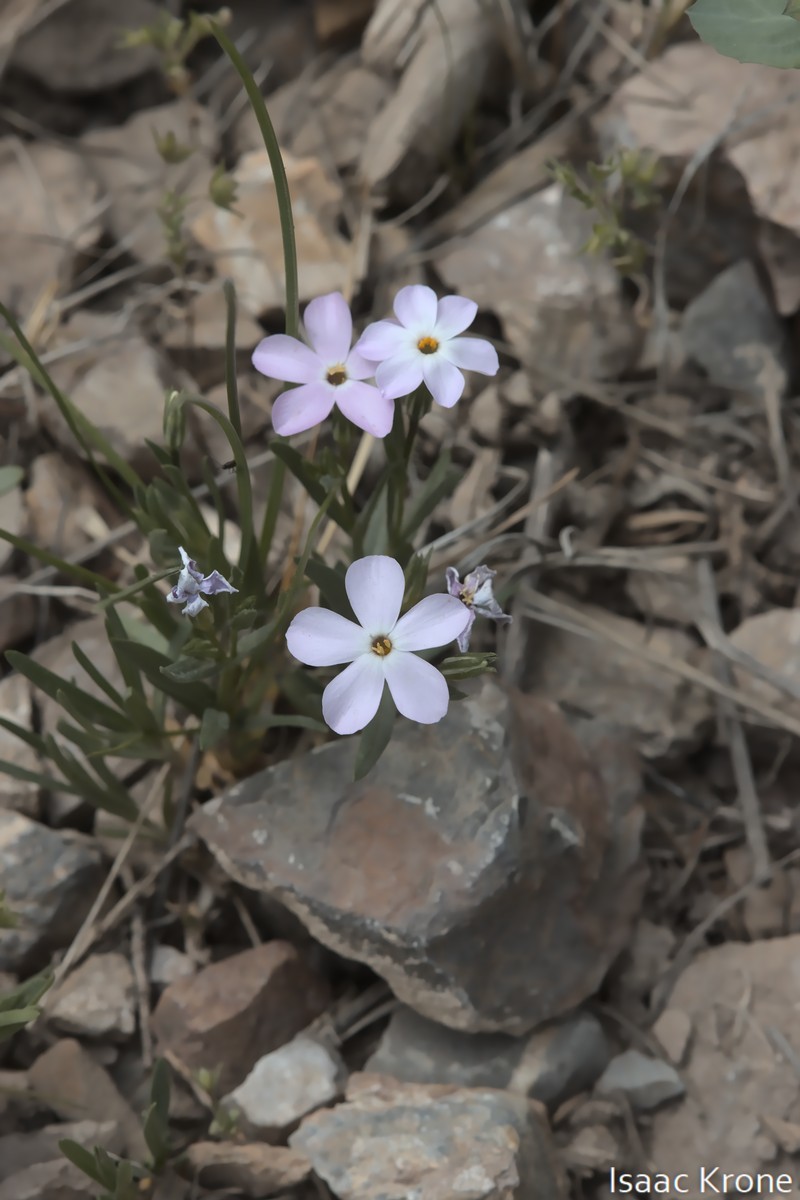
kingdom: Plantae
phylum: Tracheophyta
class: Magnoliopsida
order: Ericales
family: Polemoniaceae
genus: Phlox
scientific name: Phlox longifolia
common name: Longleaf phlox
